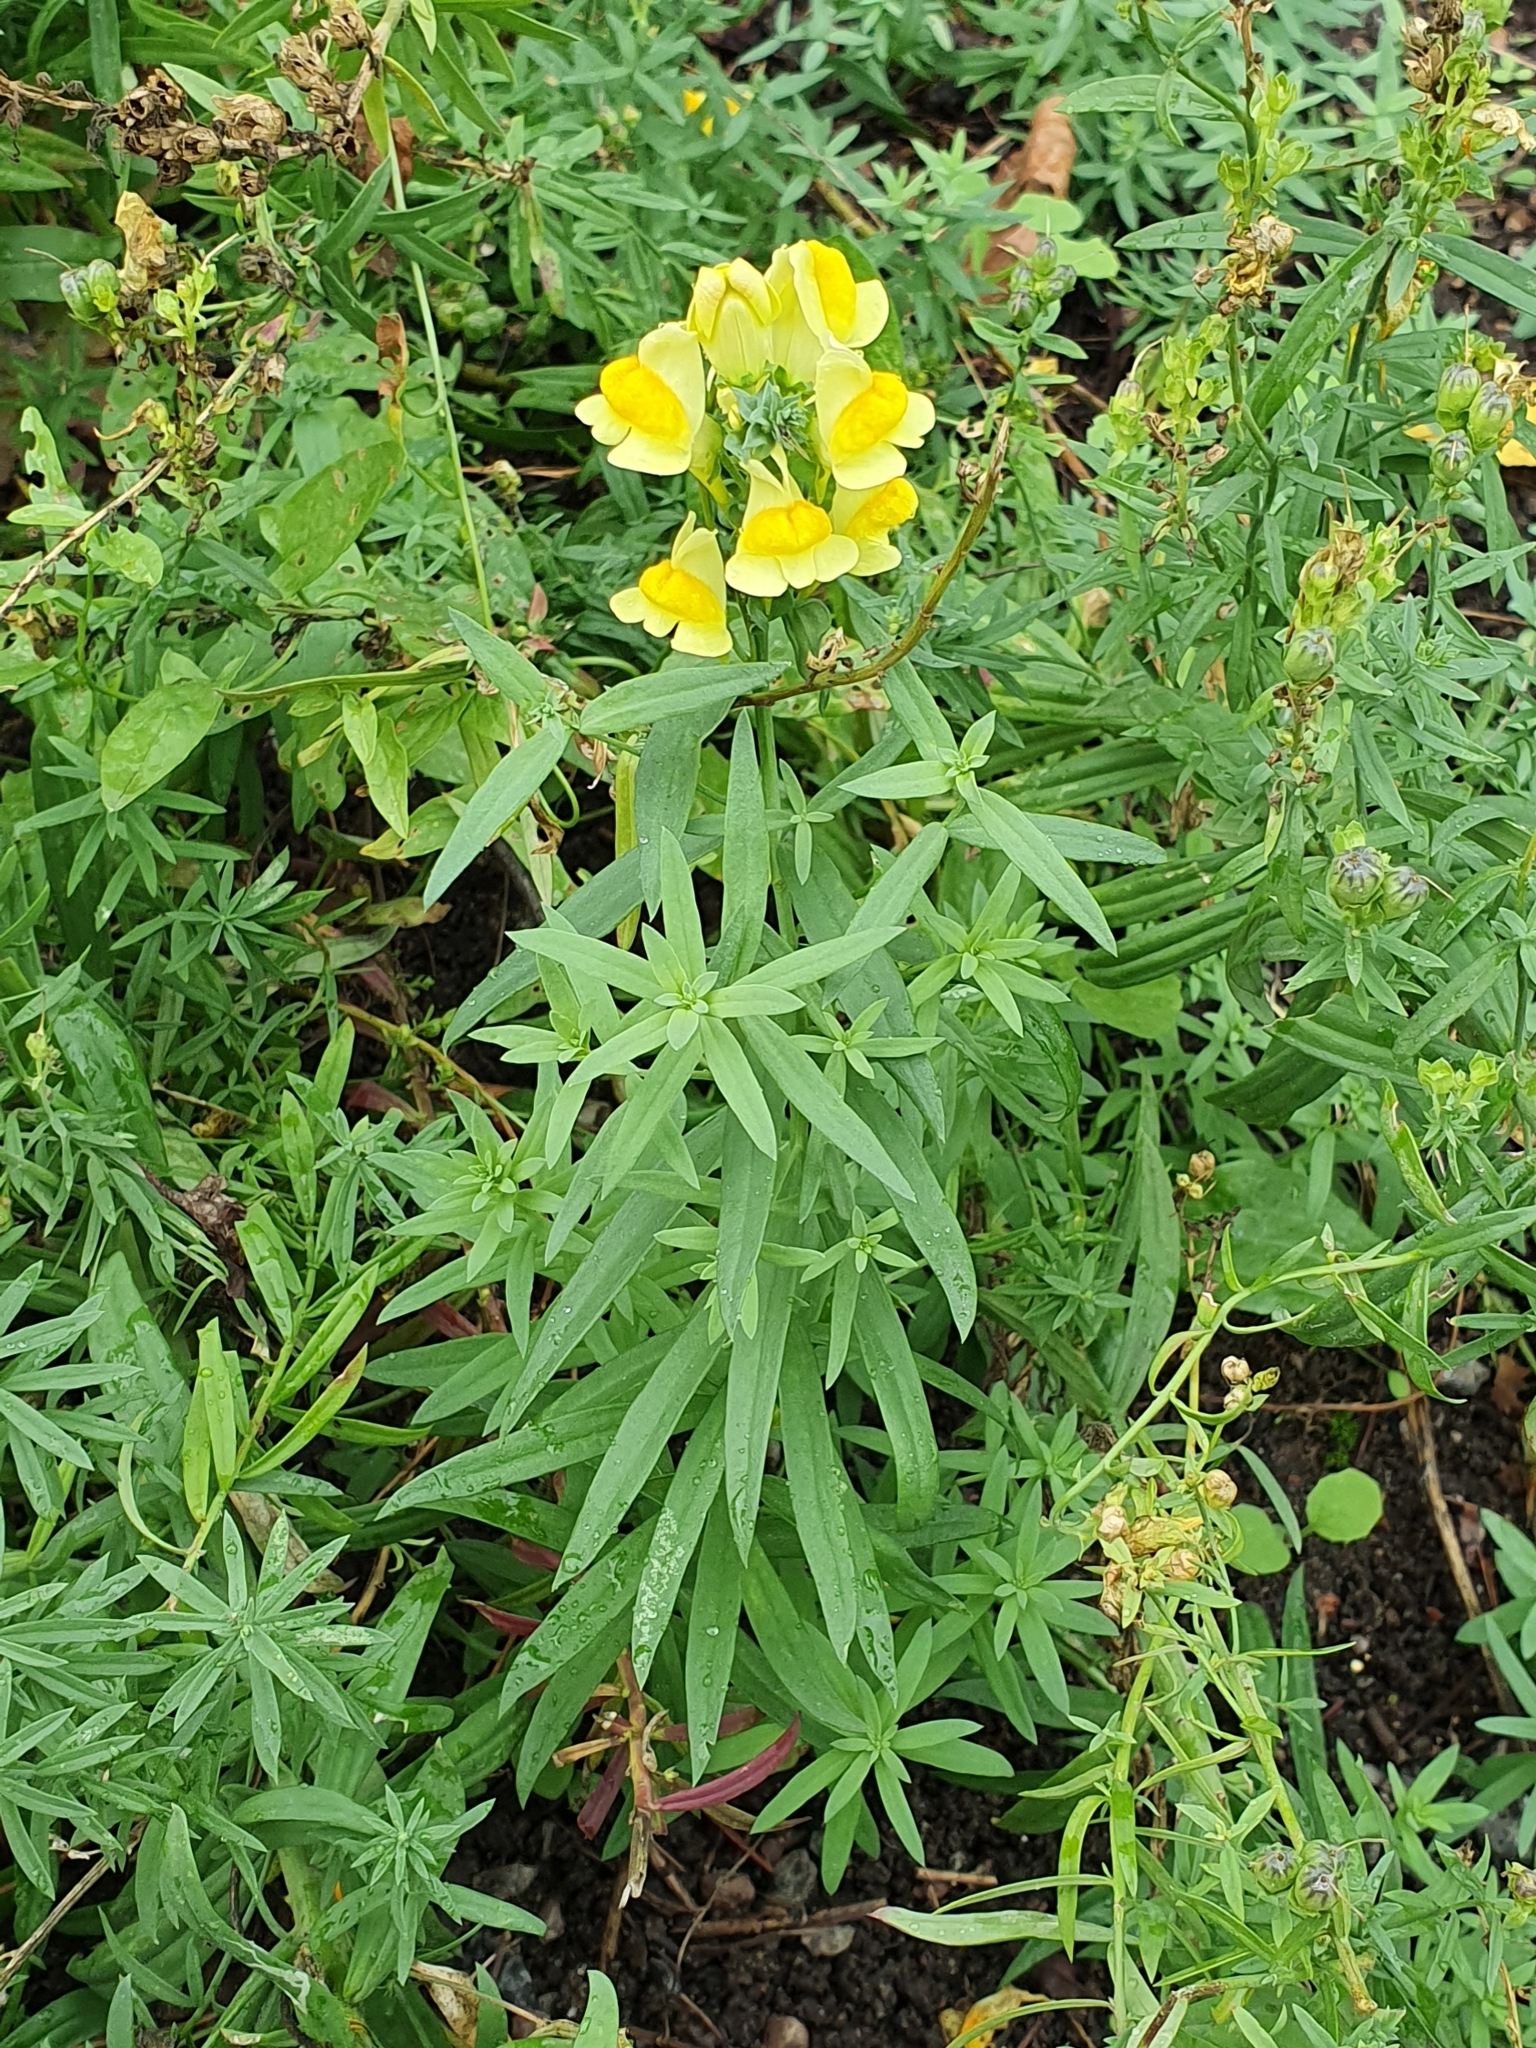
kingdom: Plantae
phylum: Tracheophyta
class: Magnoliopsida
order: Lamiales
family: Plantaginaceae
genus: Linaria
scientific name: Linaria vulgaris
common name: Butter and eggs
